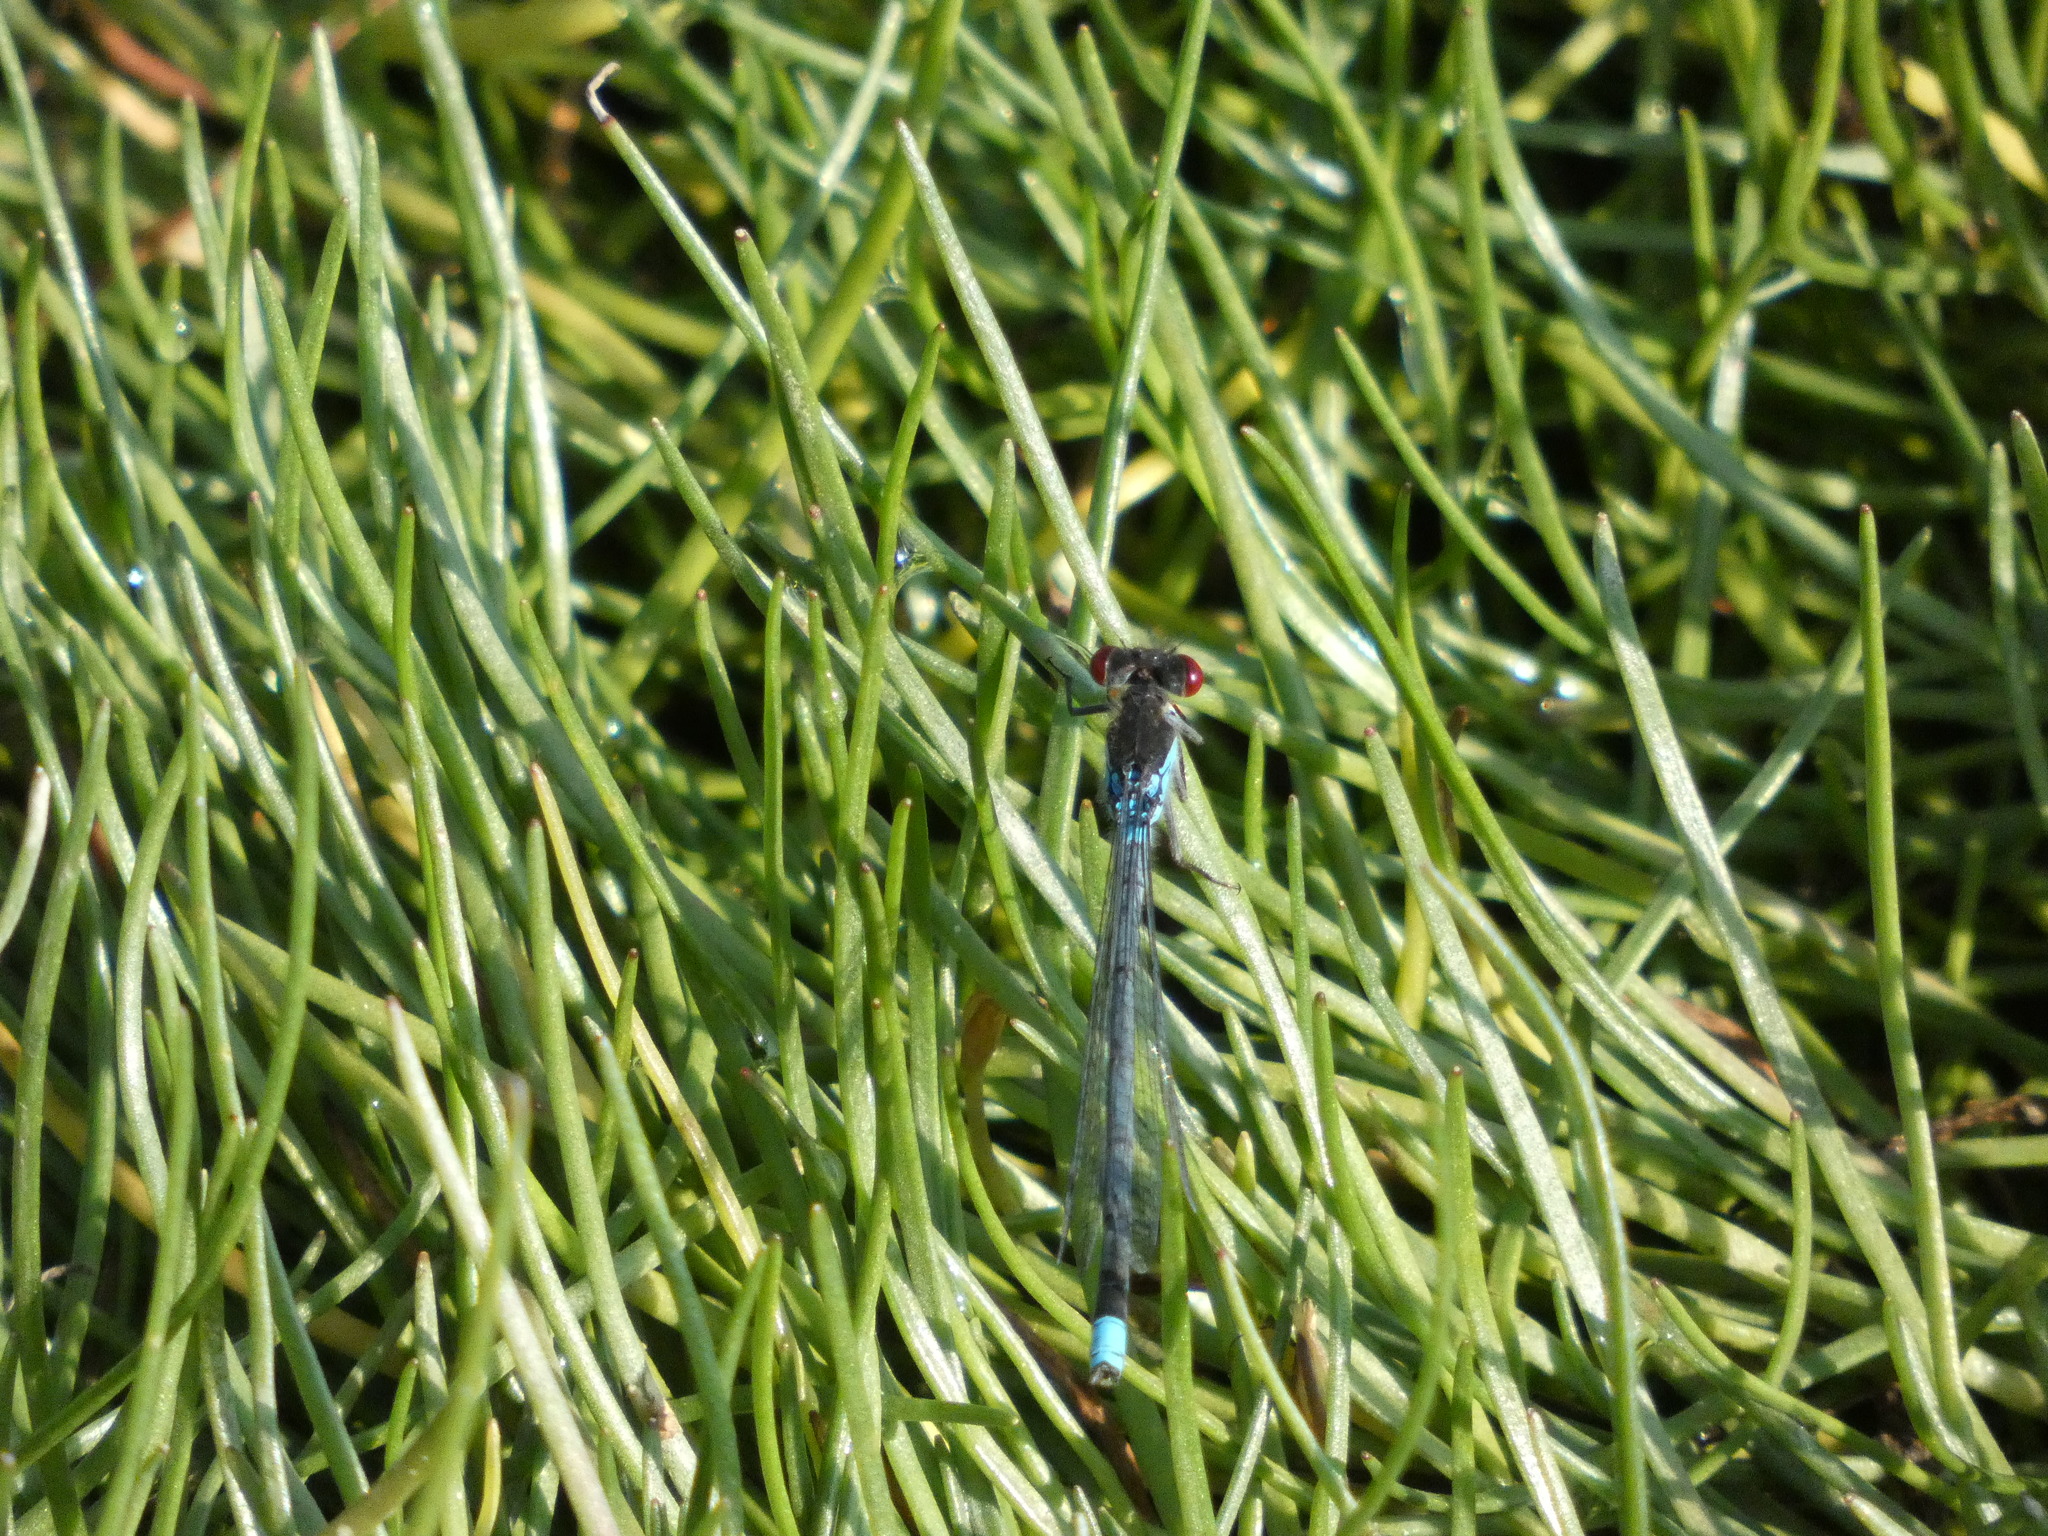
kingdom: Animalia
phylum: Arthropoda
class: Insecta
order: Odonata
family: Coenagrionidae
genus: Erythromma
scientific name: Erythromma najas
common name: Red-eyed damselfly
